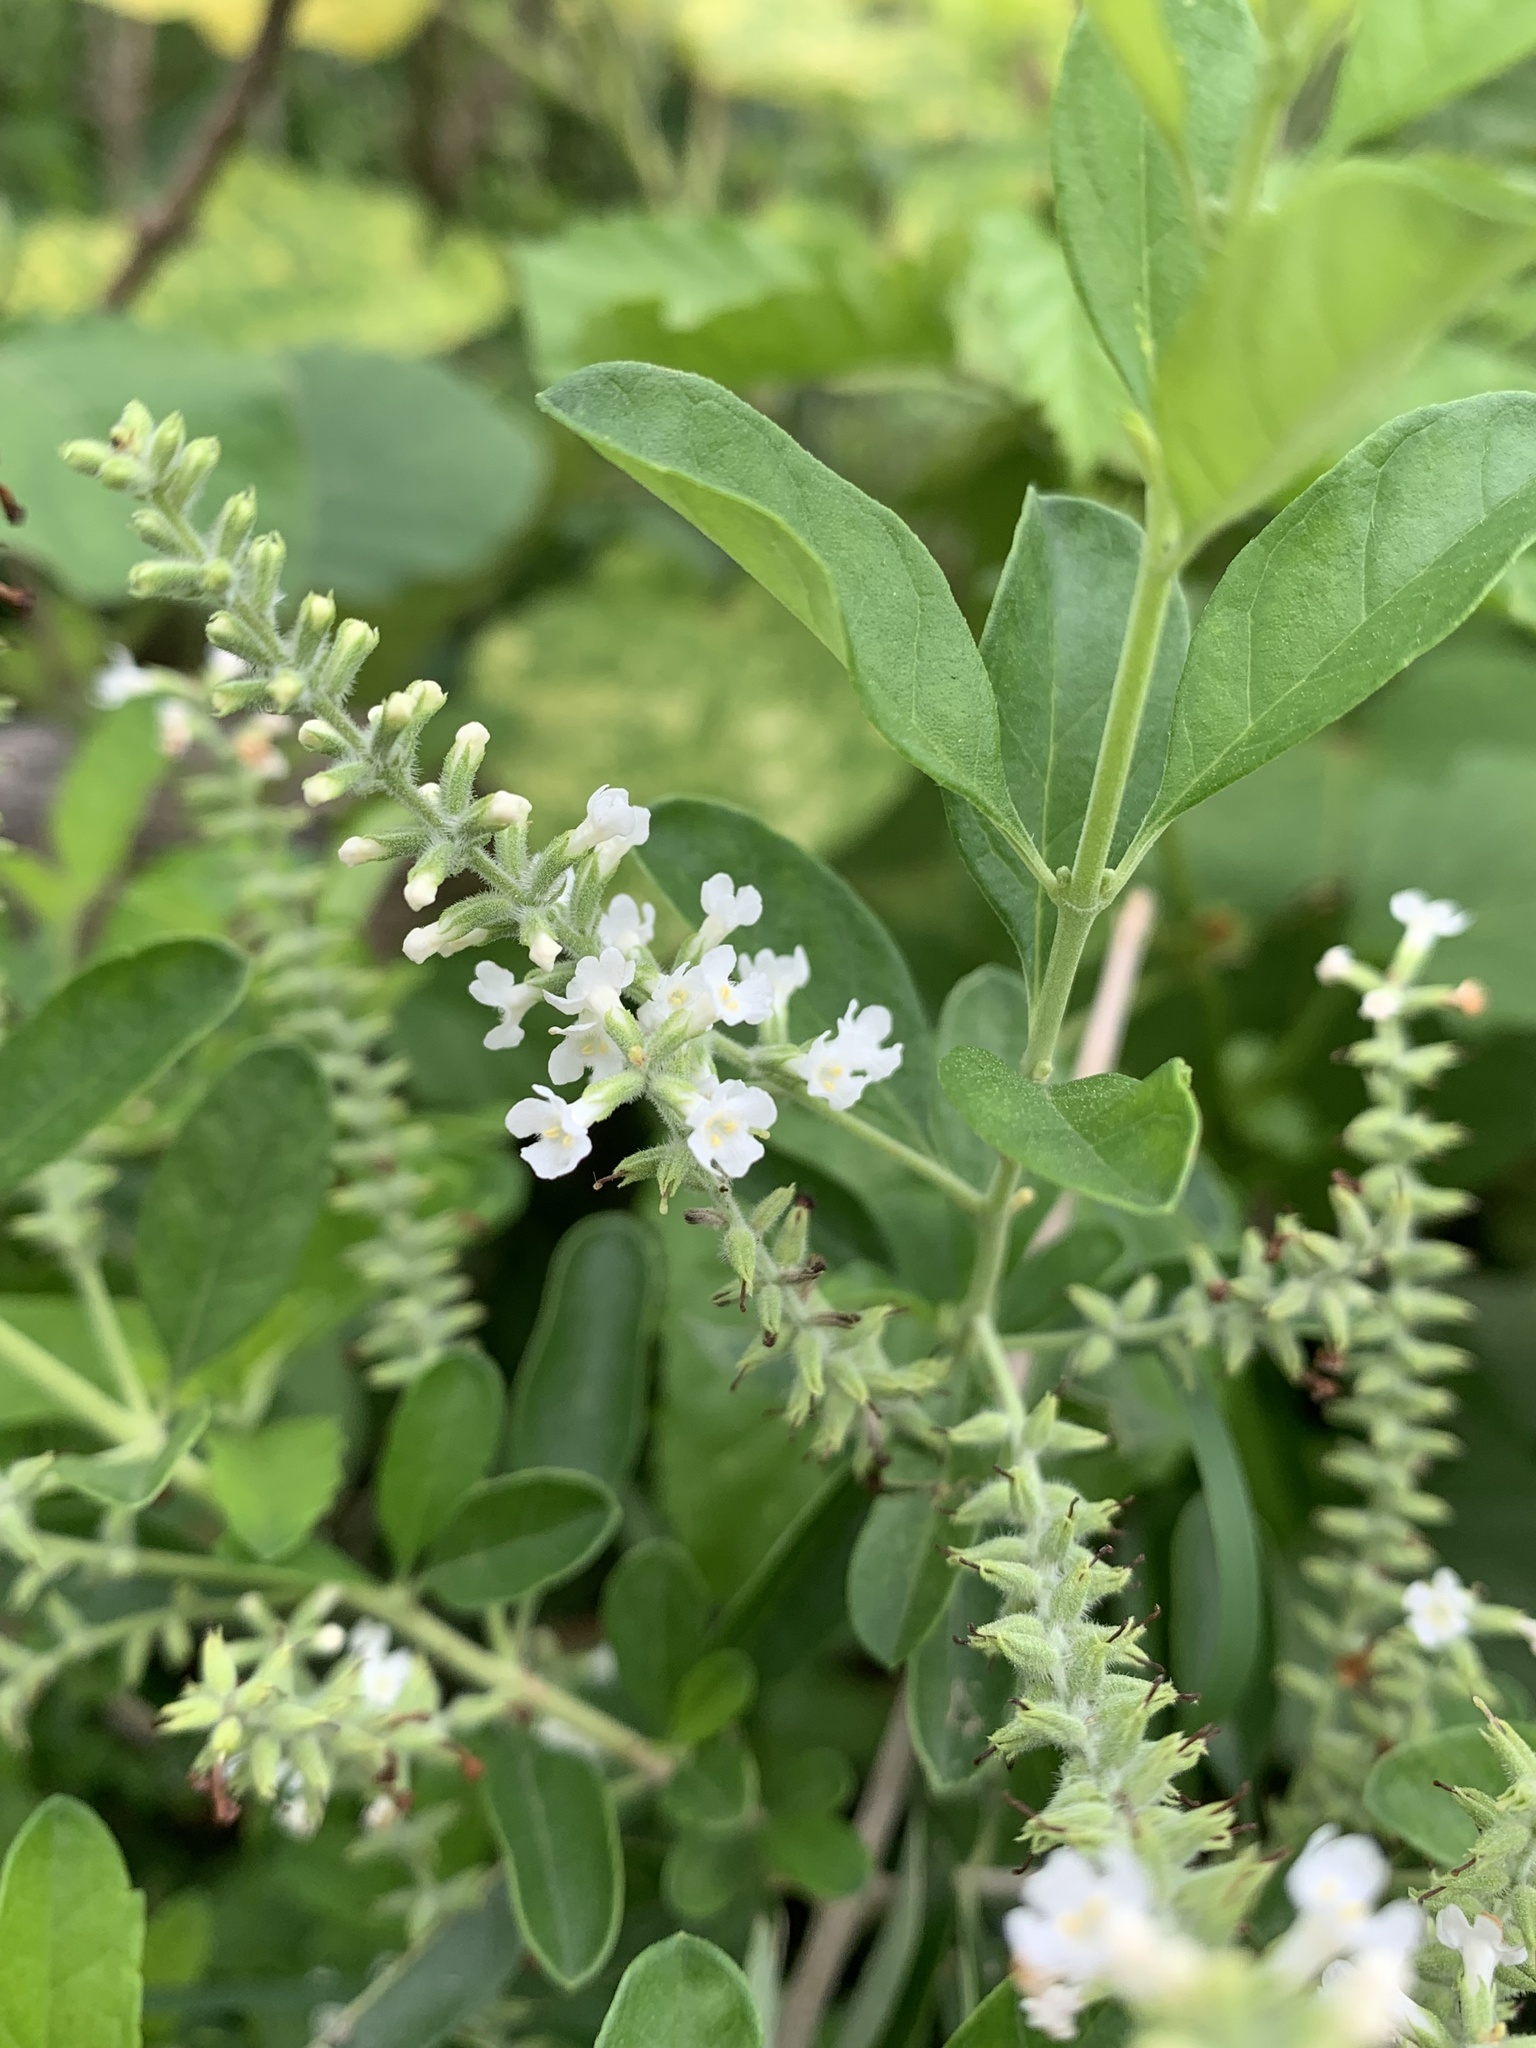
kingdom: Plantae
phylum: Tracheophyta
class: Magnoliopsida
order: Lamiales
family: Verbenaceae
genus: Aloysia
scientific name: Aloysia virgata
